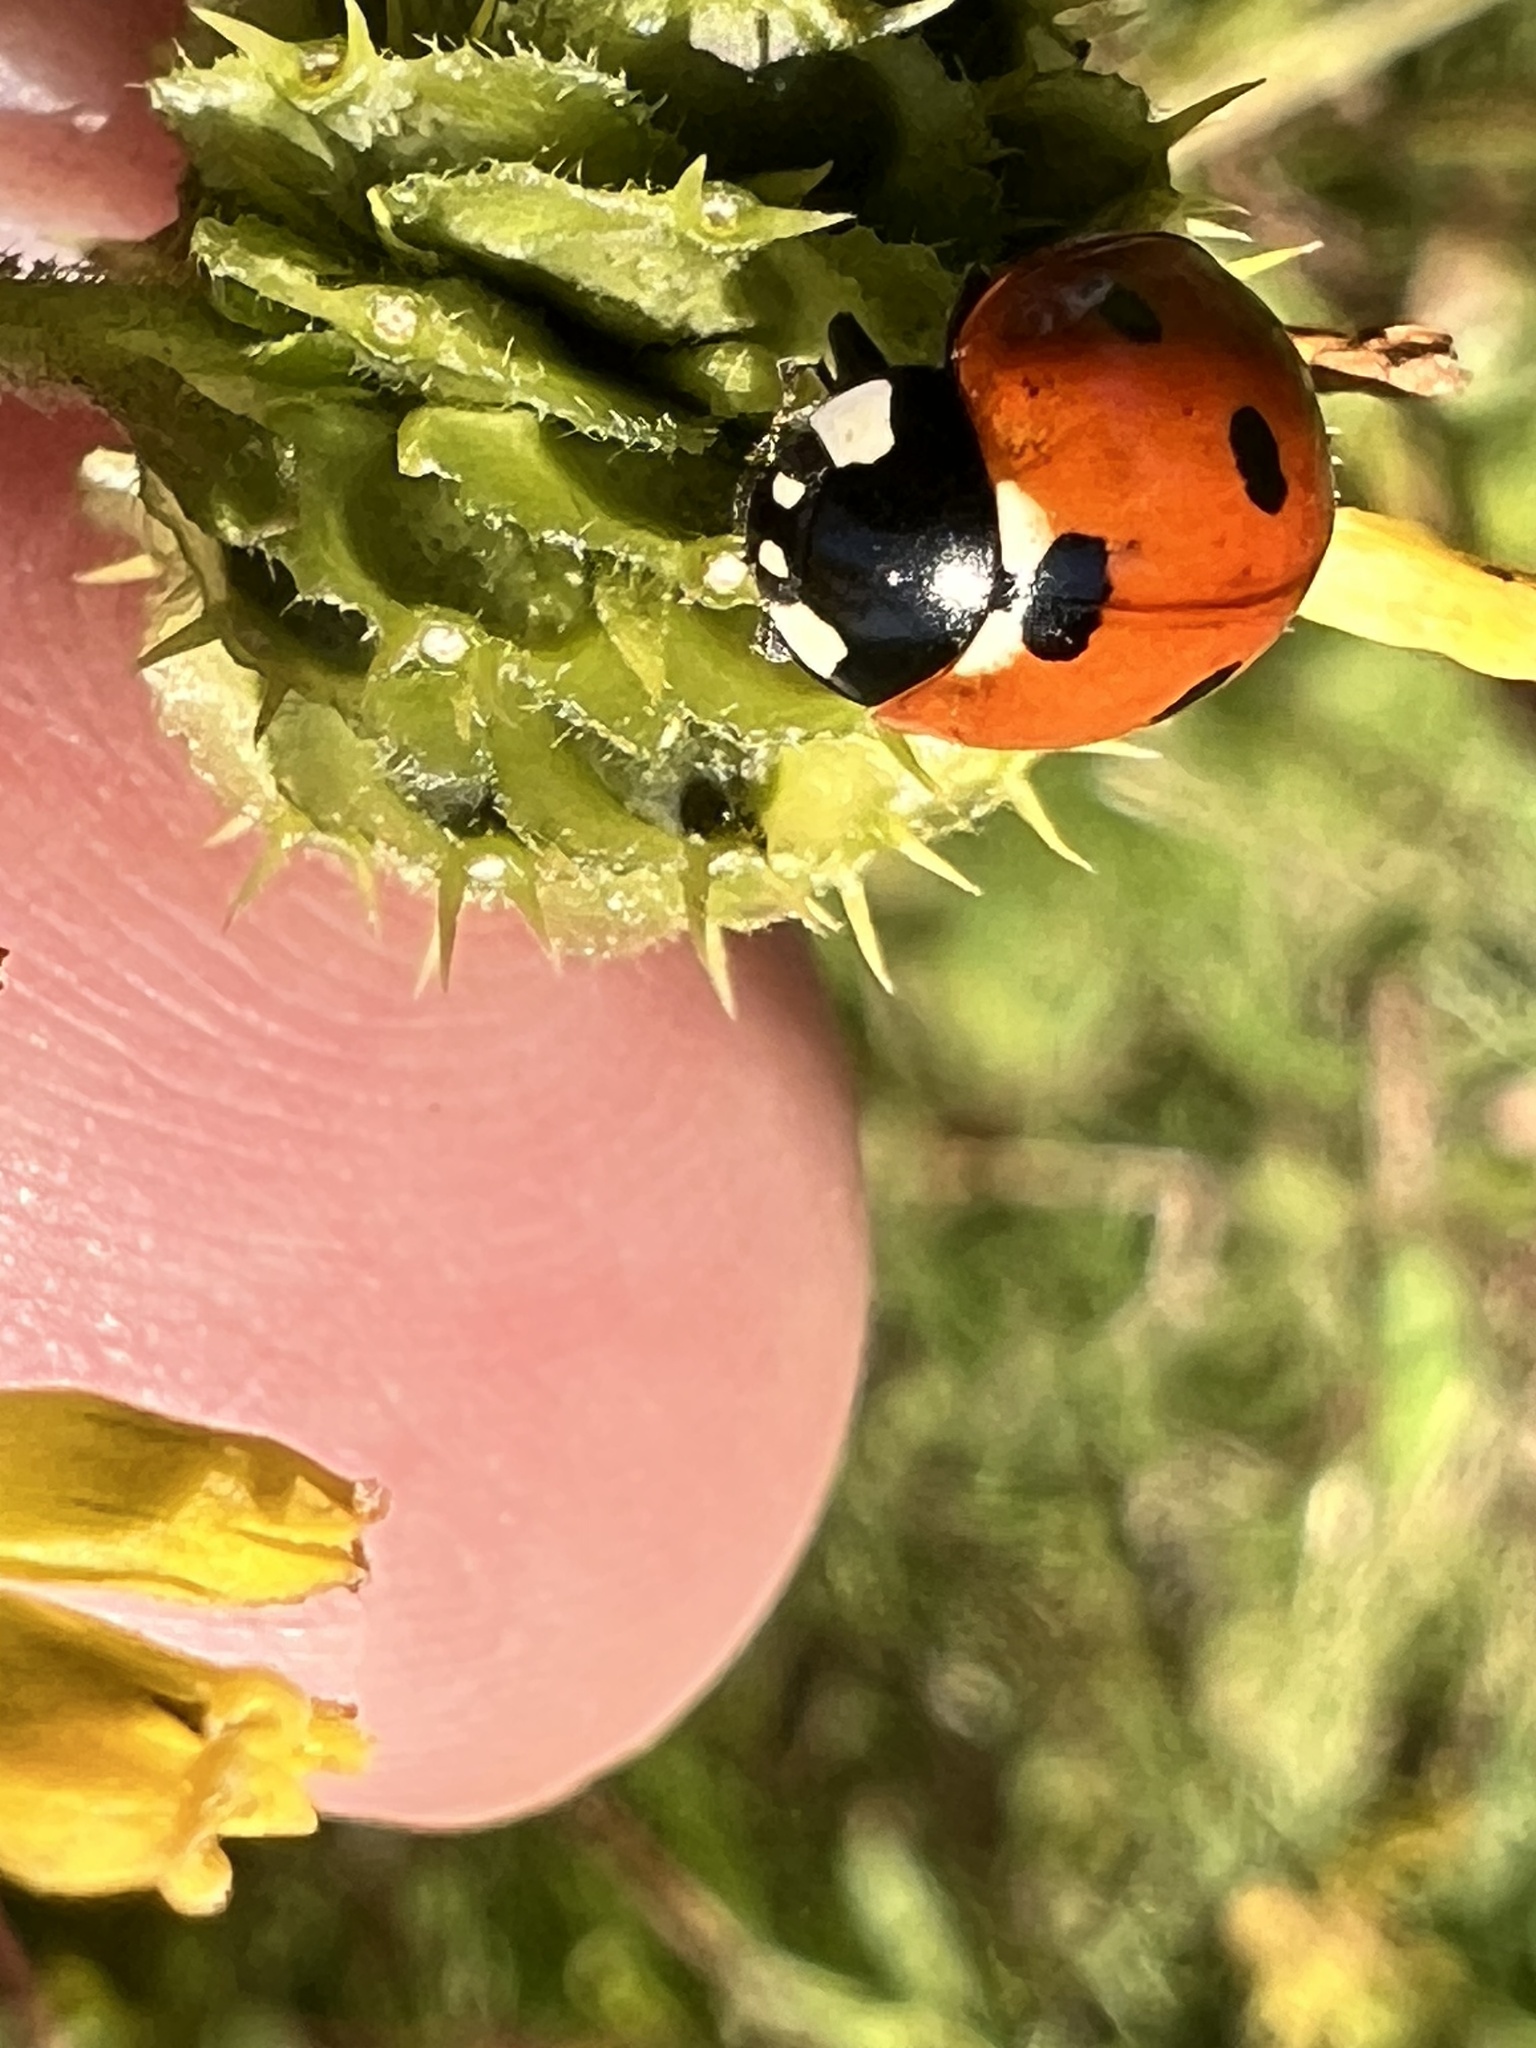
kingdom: Animalia
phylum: Arthropoda
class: Insecta
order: Coleoptera
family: Coccinellidae
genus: Coccinella
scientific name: Coccinella septempunctata
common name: Sevenspotted lady beetle
